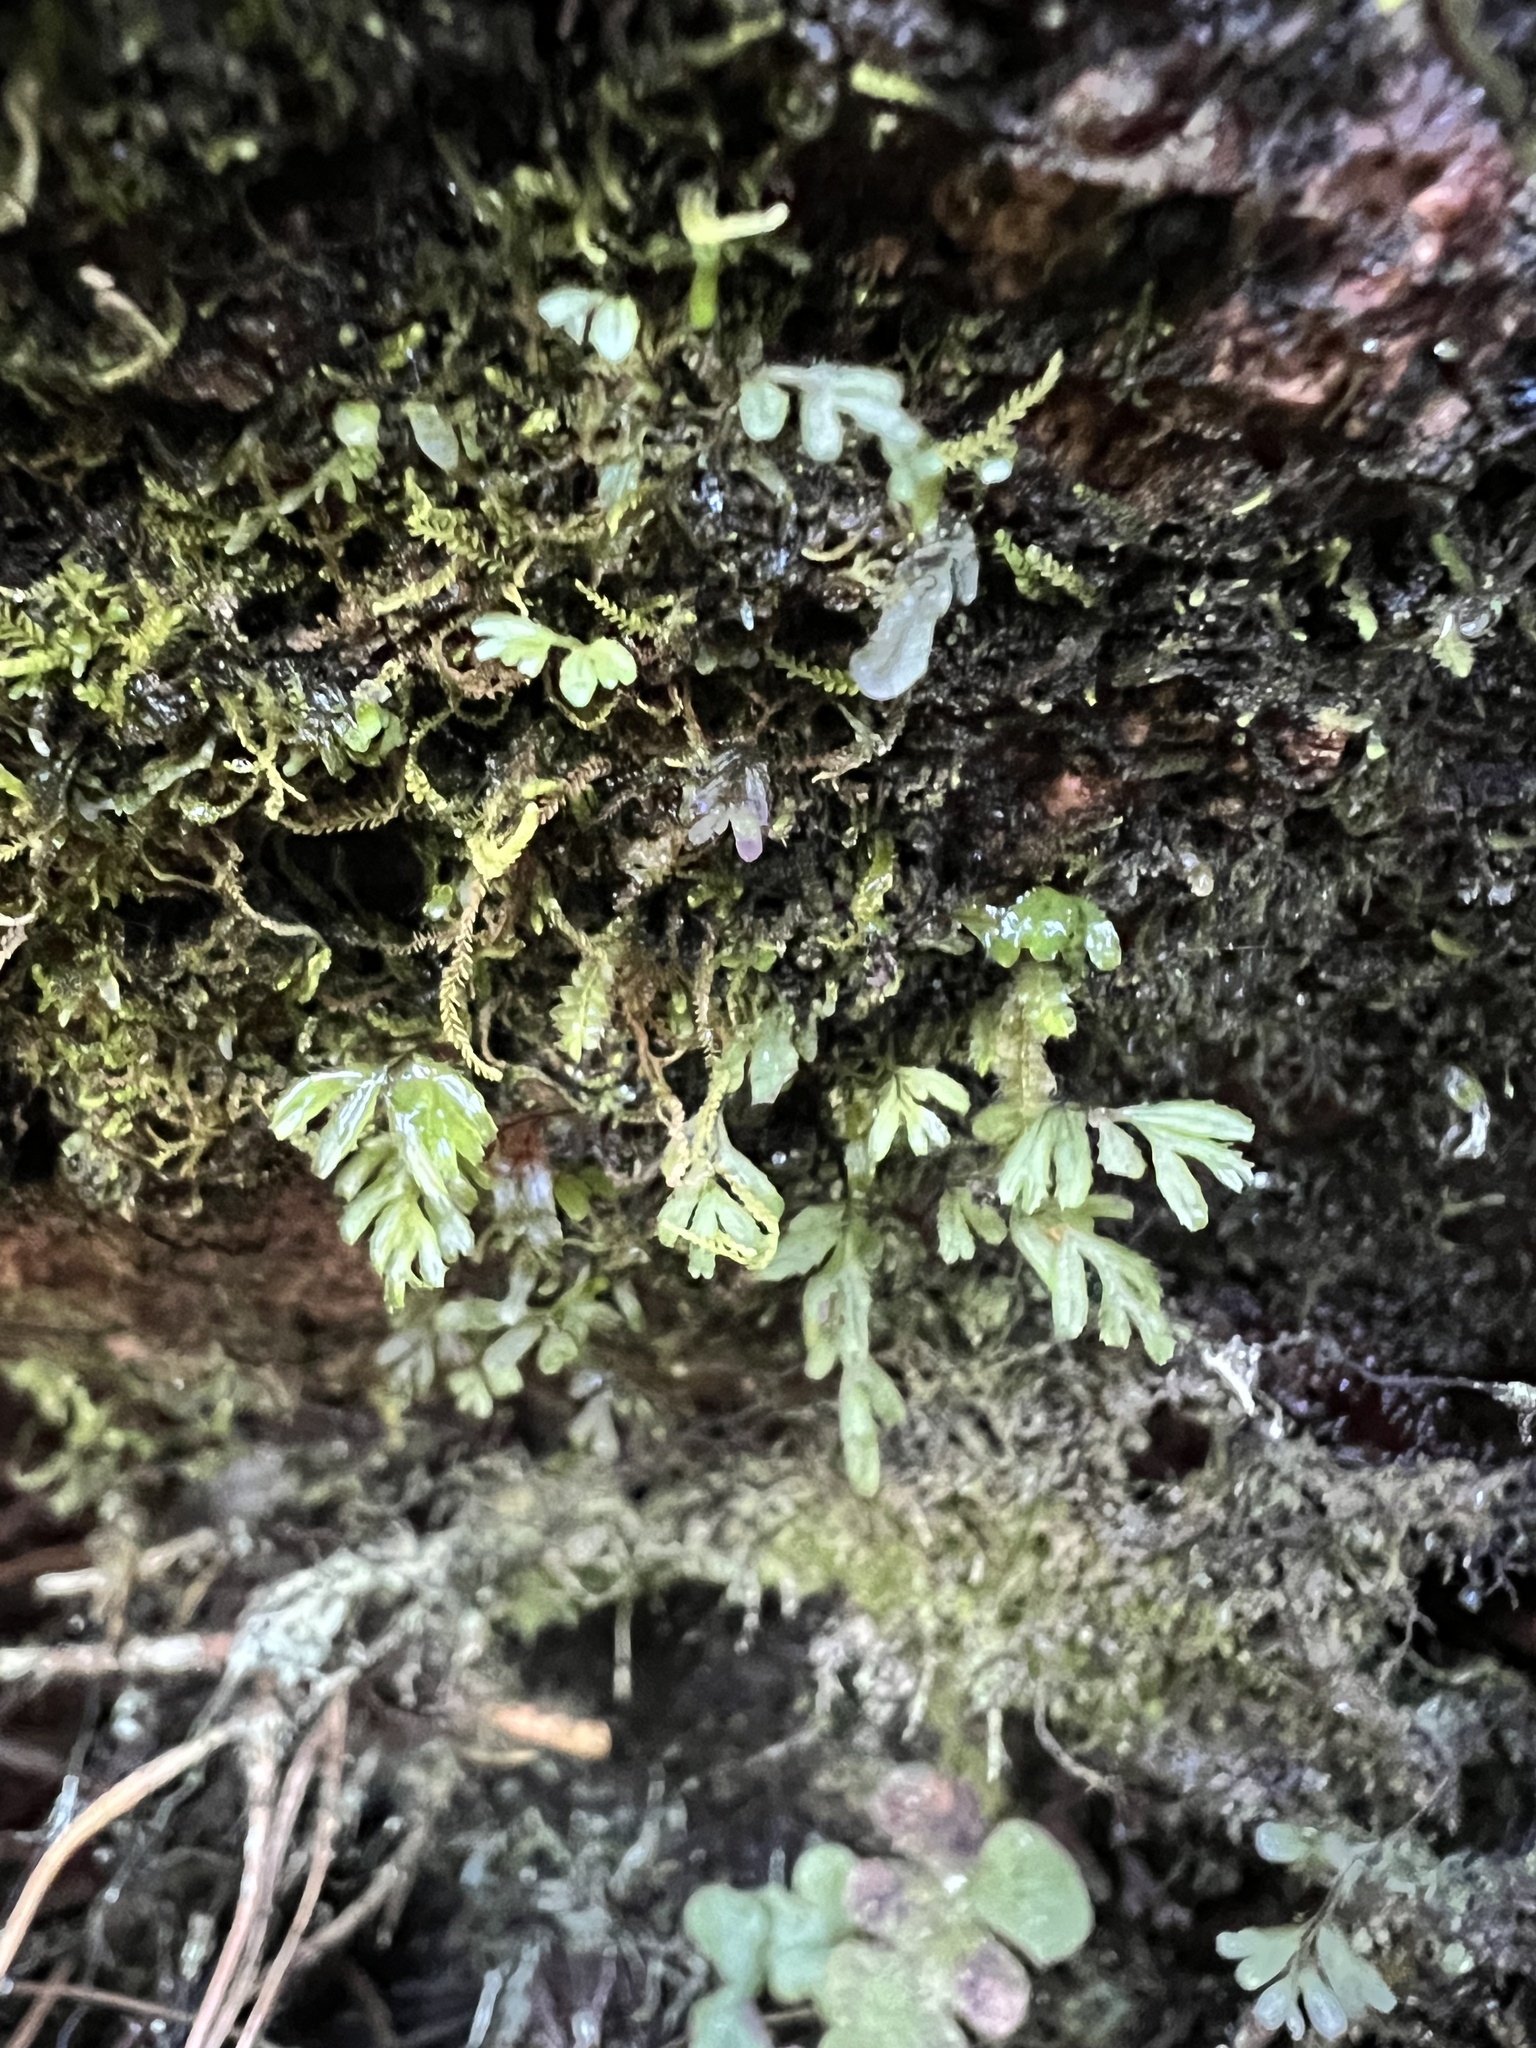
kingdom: Plantae
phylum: Tracheophyta
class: Polypodiopsida
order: Hymenophyllales
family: Hymenophyllaceae
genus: Hymenophyllum
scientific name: Hymenophyllum revolutum
